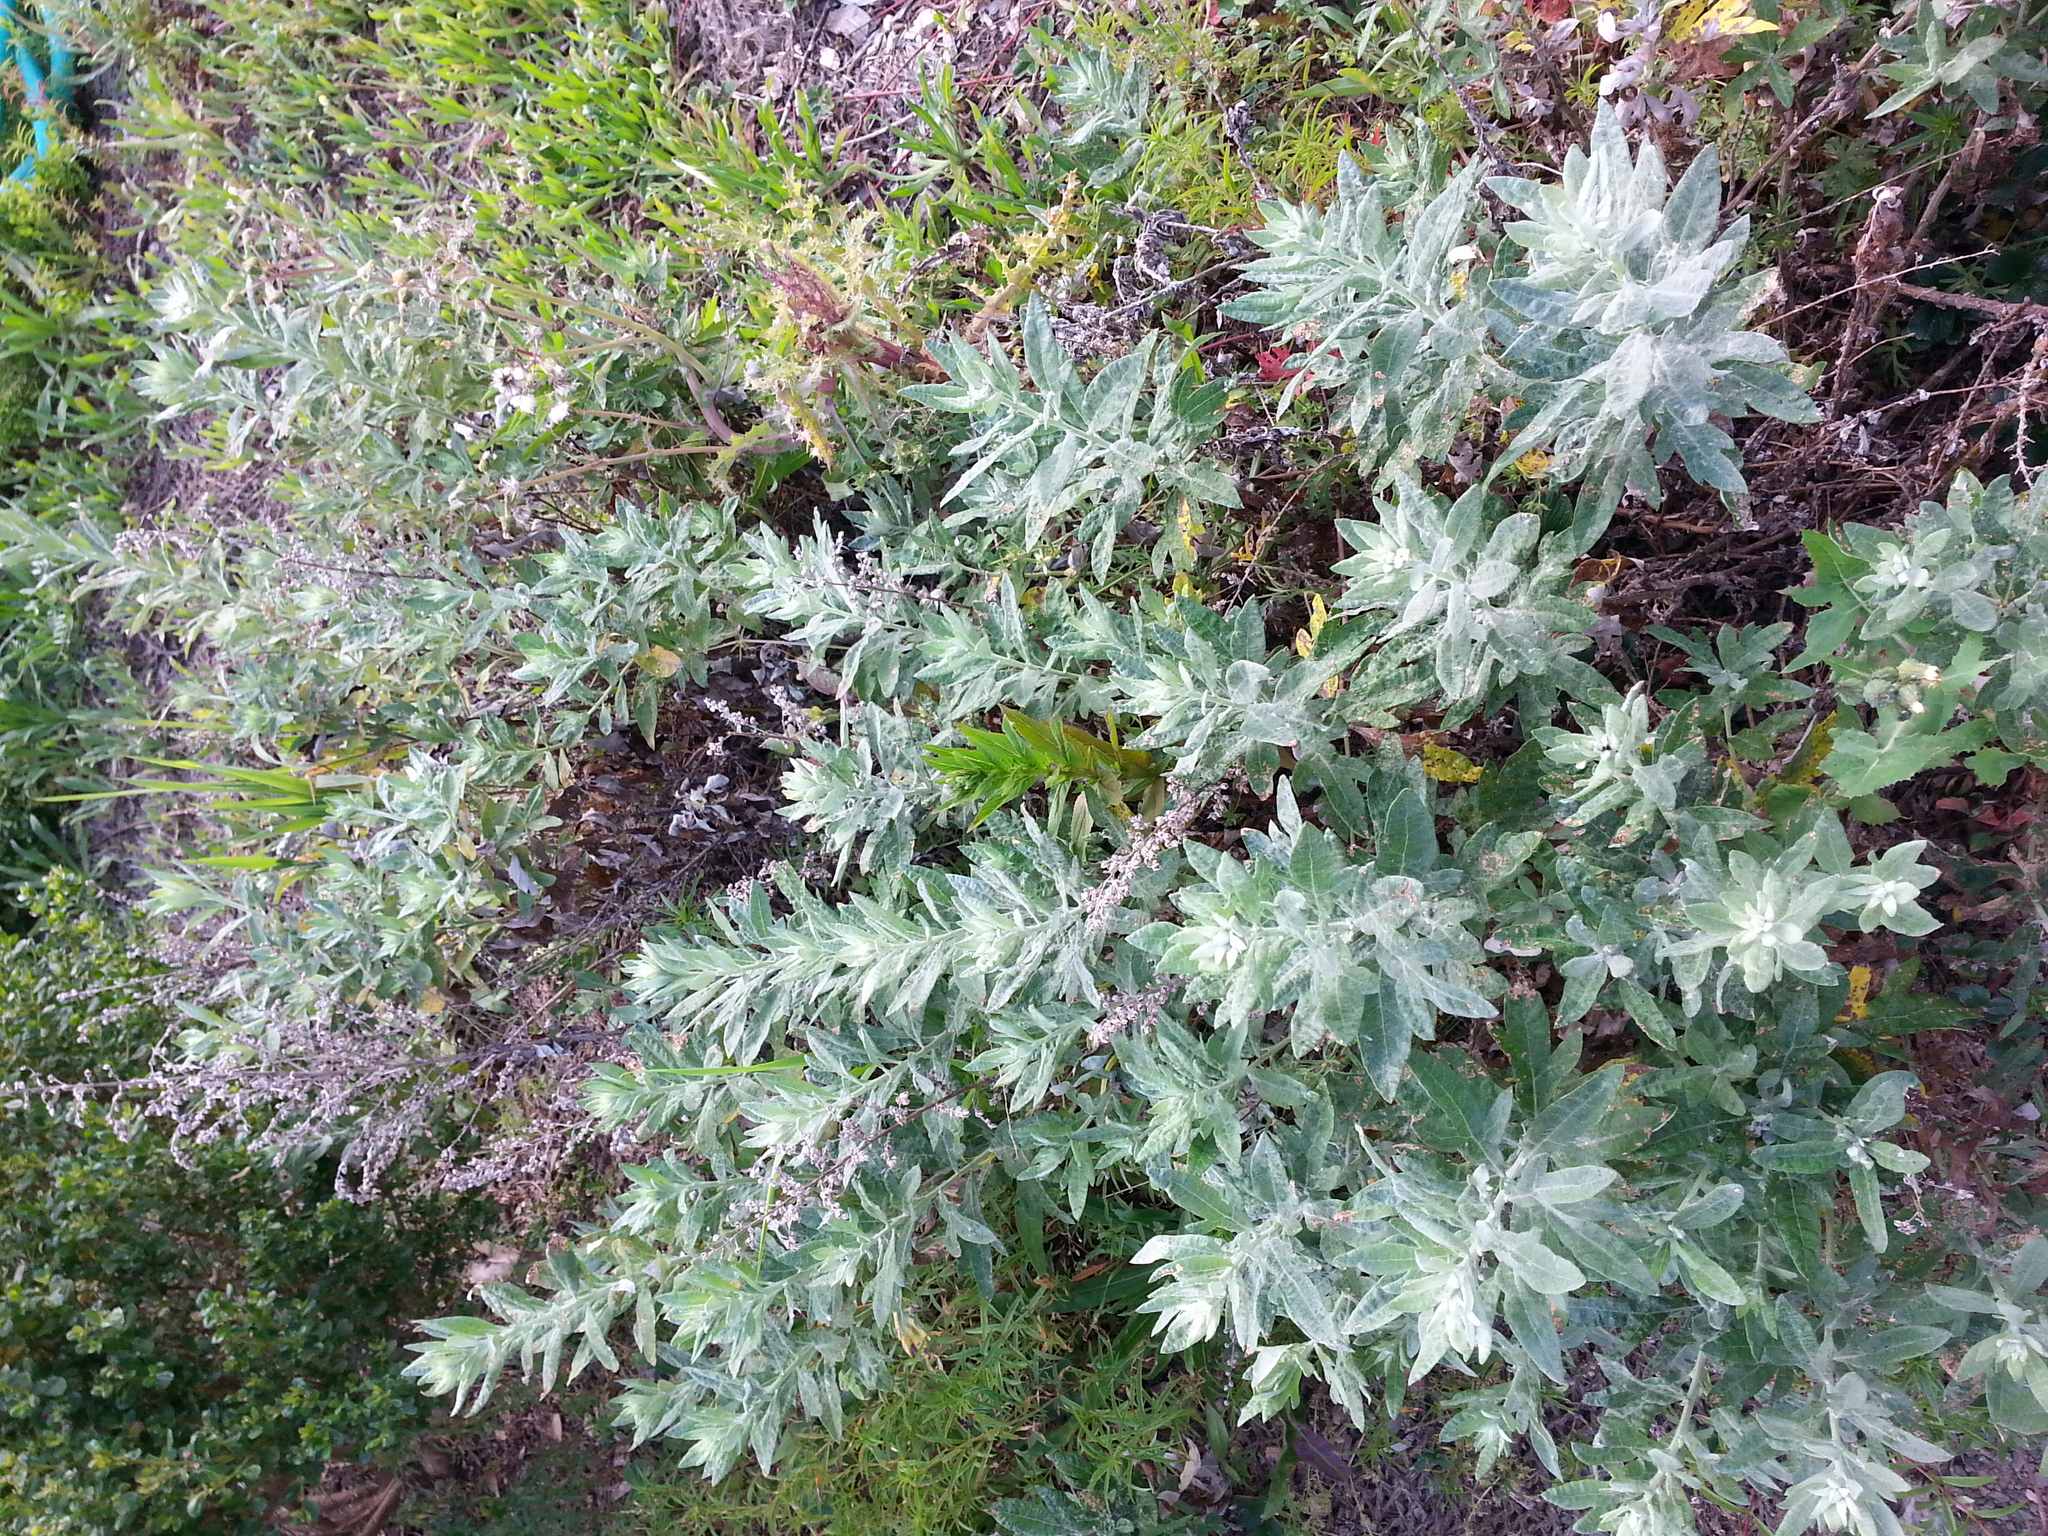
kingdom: Plantae
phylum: Tracheophyta
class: Magnoliopsida
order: Asterales
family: Asteraceae
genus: Artemisia
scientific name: Artemisia douglasiana
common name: Northwest mugwort
